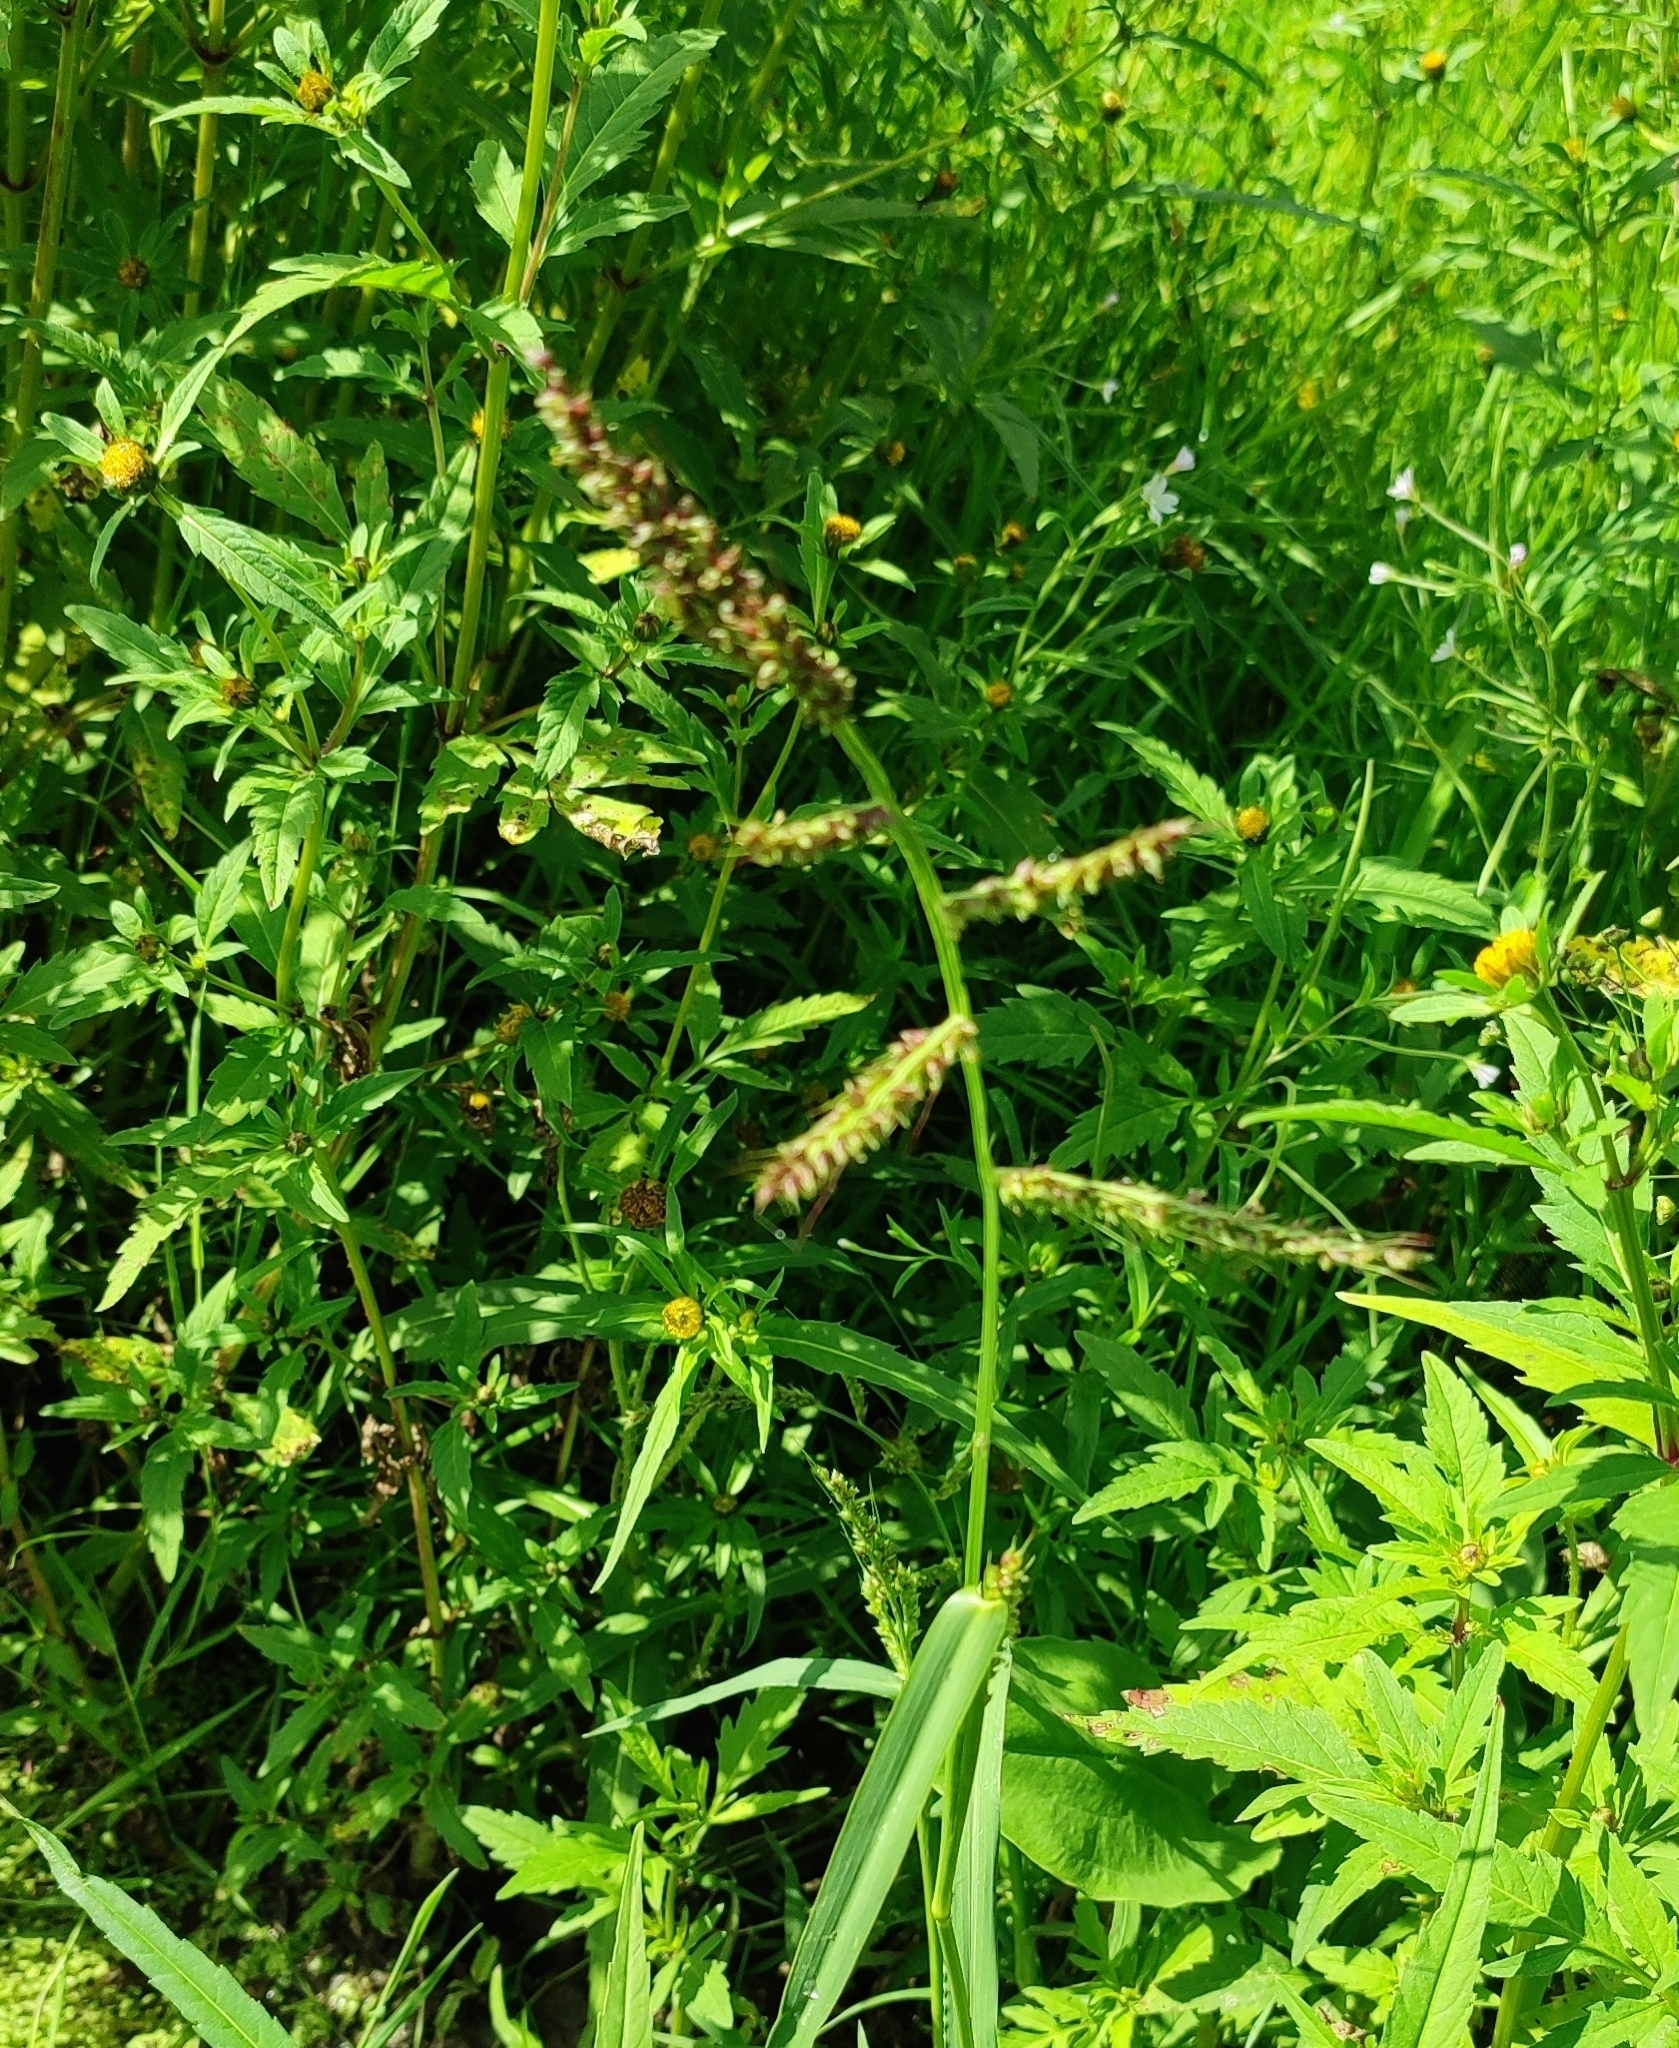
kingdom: Plantae
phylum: Tracheophyta
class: Liliopsida
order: Poales
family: Poaceae
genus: Echinochloa
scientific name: Echinochloa crus-galli
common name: Cockspur
